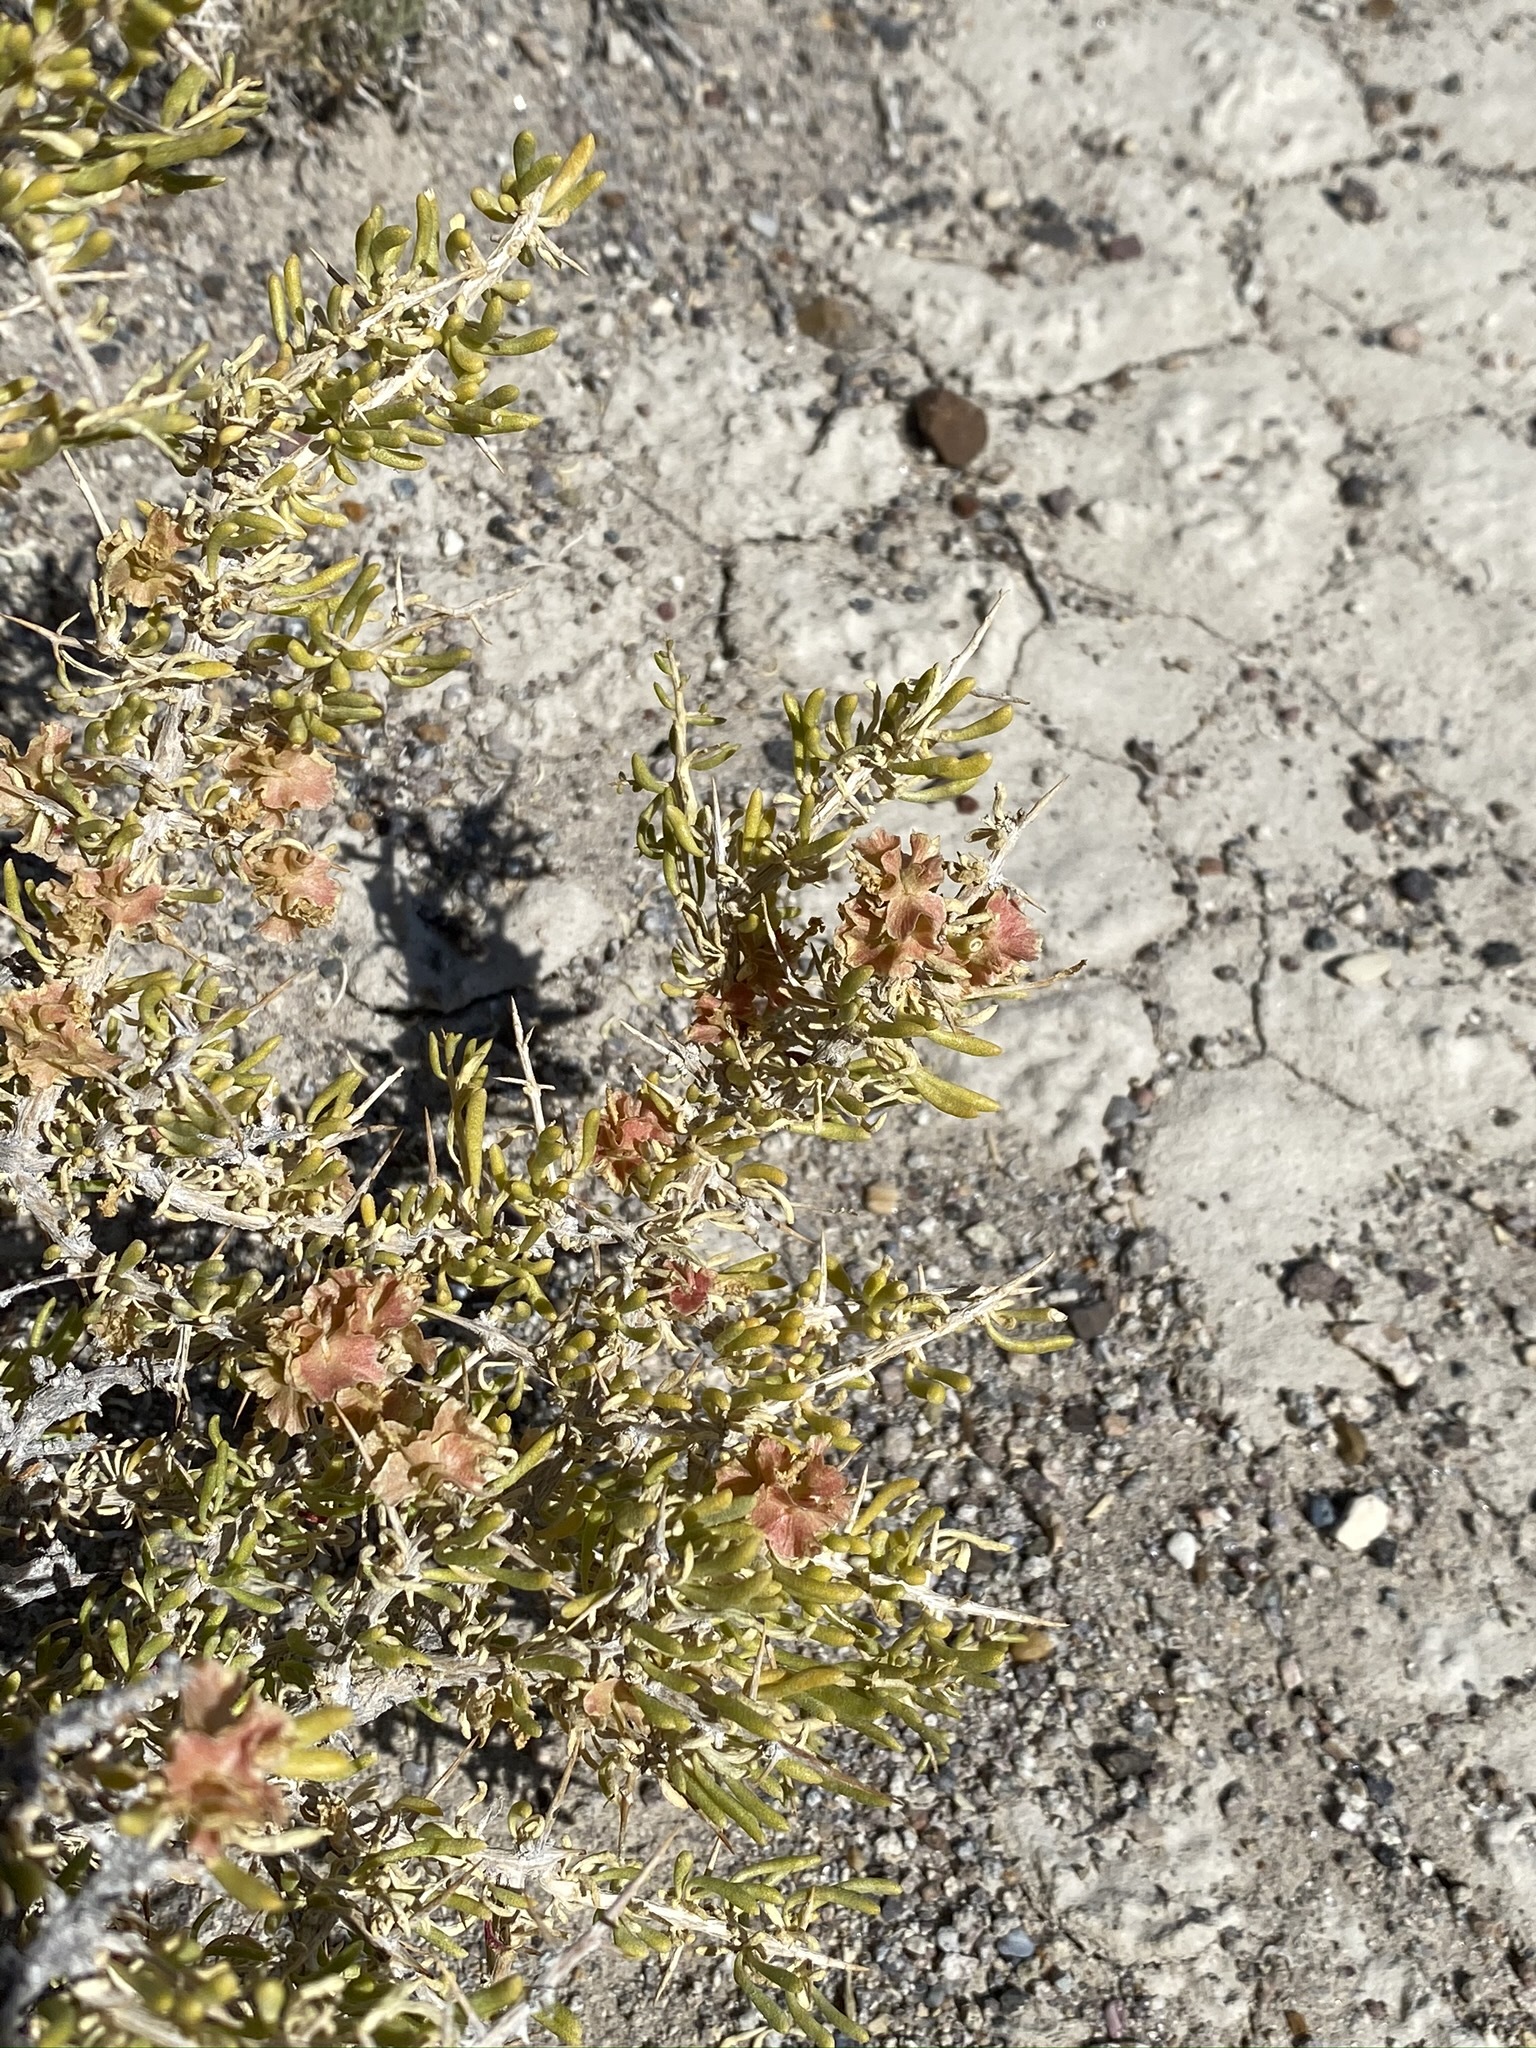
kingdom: Plantae
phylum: Tracheophyta
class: Magnoliopsida
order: Caryophyllales
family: Sarcobataceae
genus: Sarcobatus
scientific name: Sarcobatus vermiculatus
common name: Greasewood
